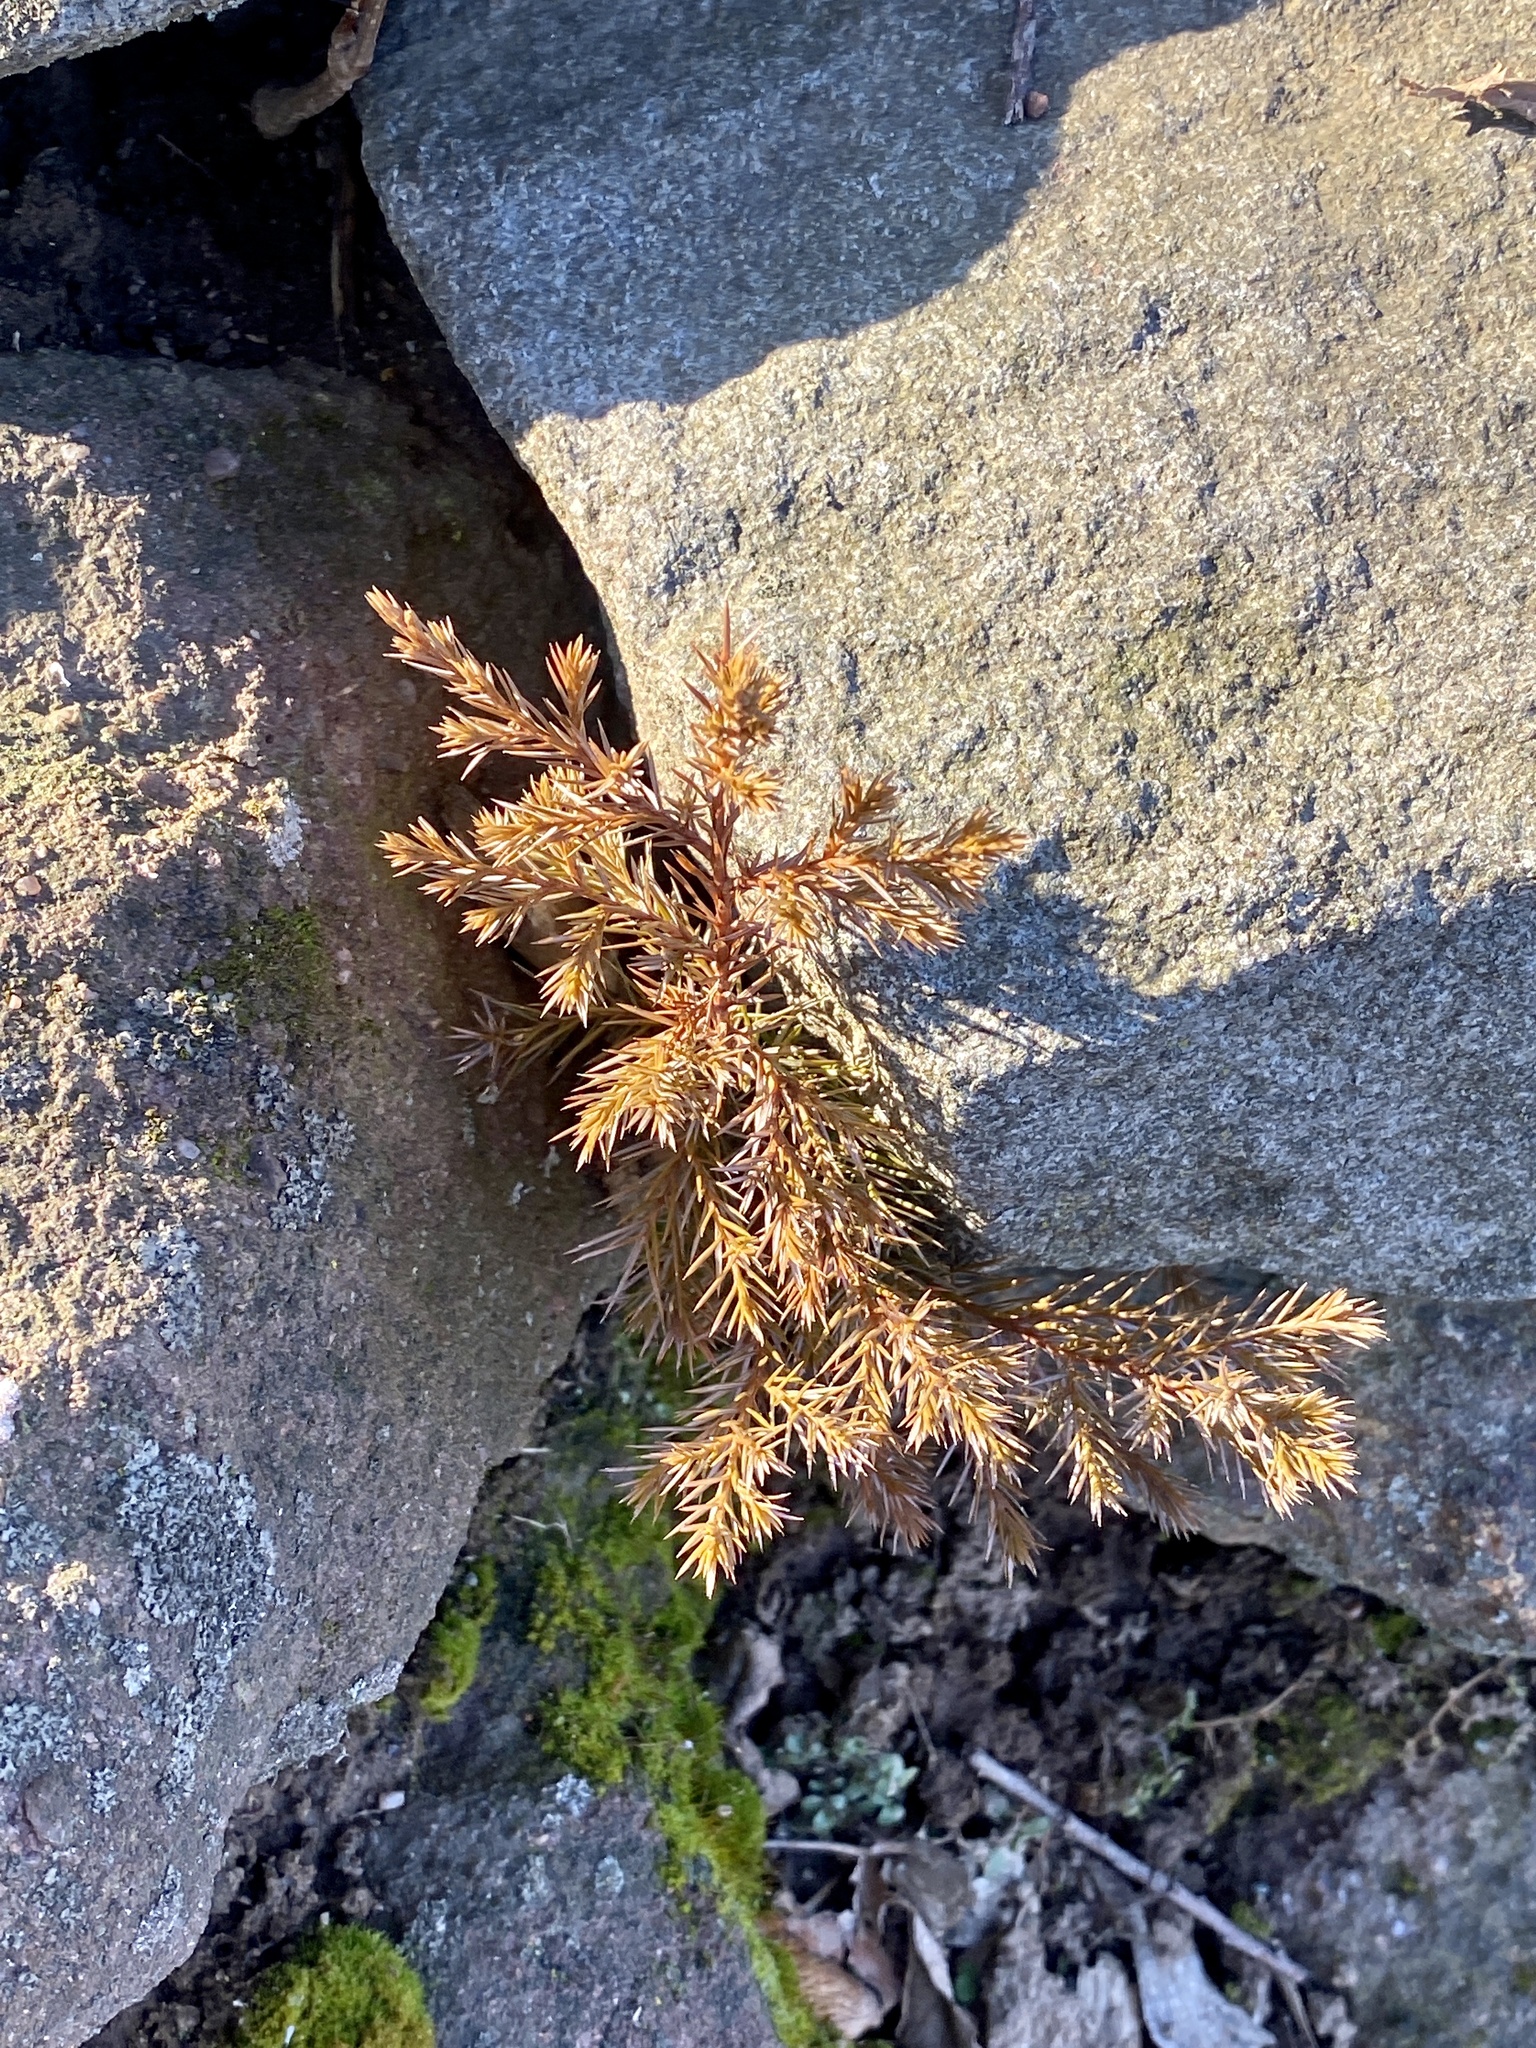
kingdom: Plantae
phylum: Tracheophyta
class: Pinopsida
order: Pinales
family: Cupressaceae
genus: Juniperus
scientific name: Juniperus virginiana
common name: Red juniper
